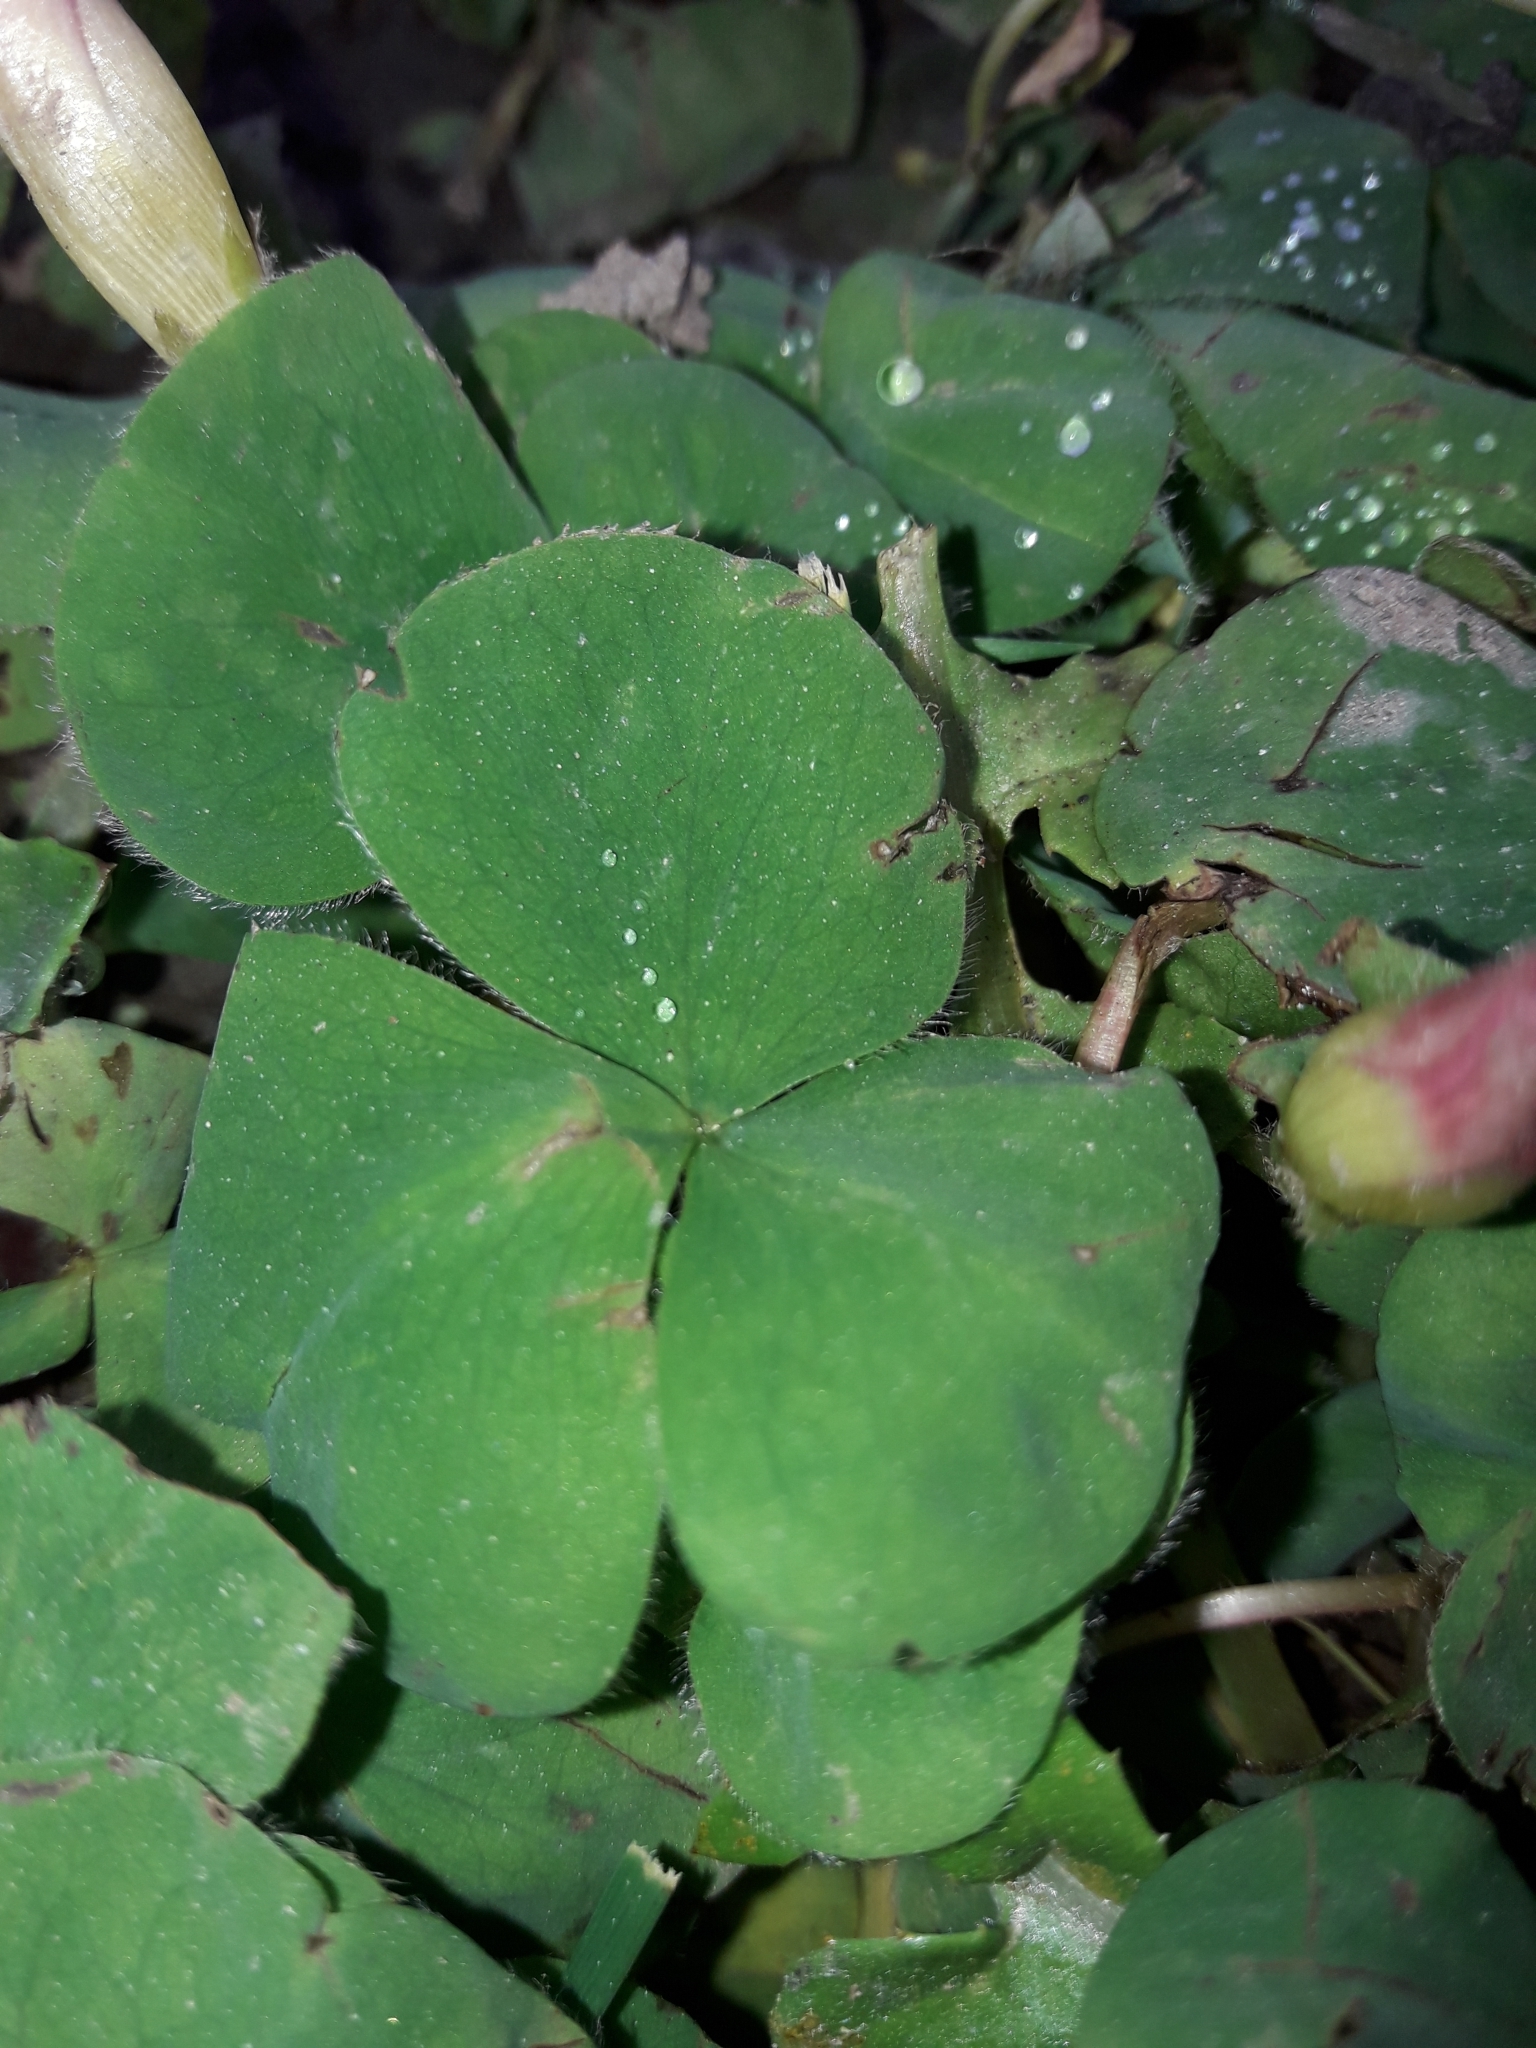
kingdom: Plantae
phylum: Tracheophyta
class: Magnoliopsida
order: Oxalidales
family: Oxalidaceae
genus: Oxalis
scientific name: Oxalis purpurea
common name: Purple woodsorrel
